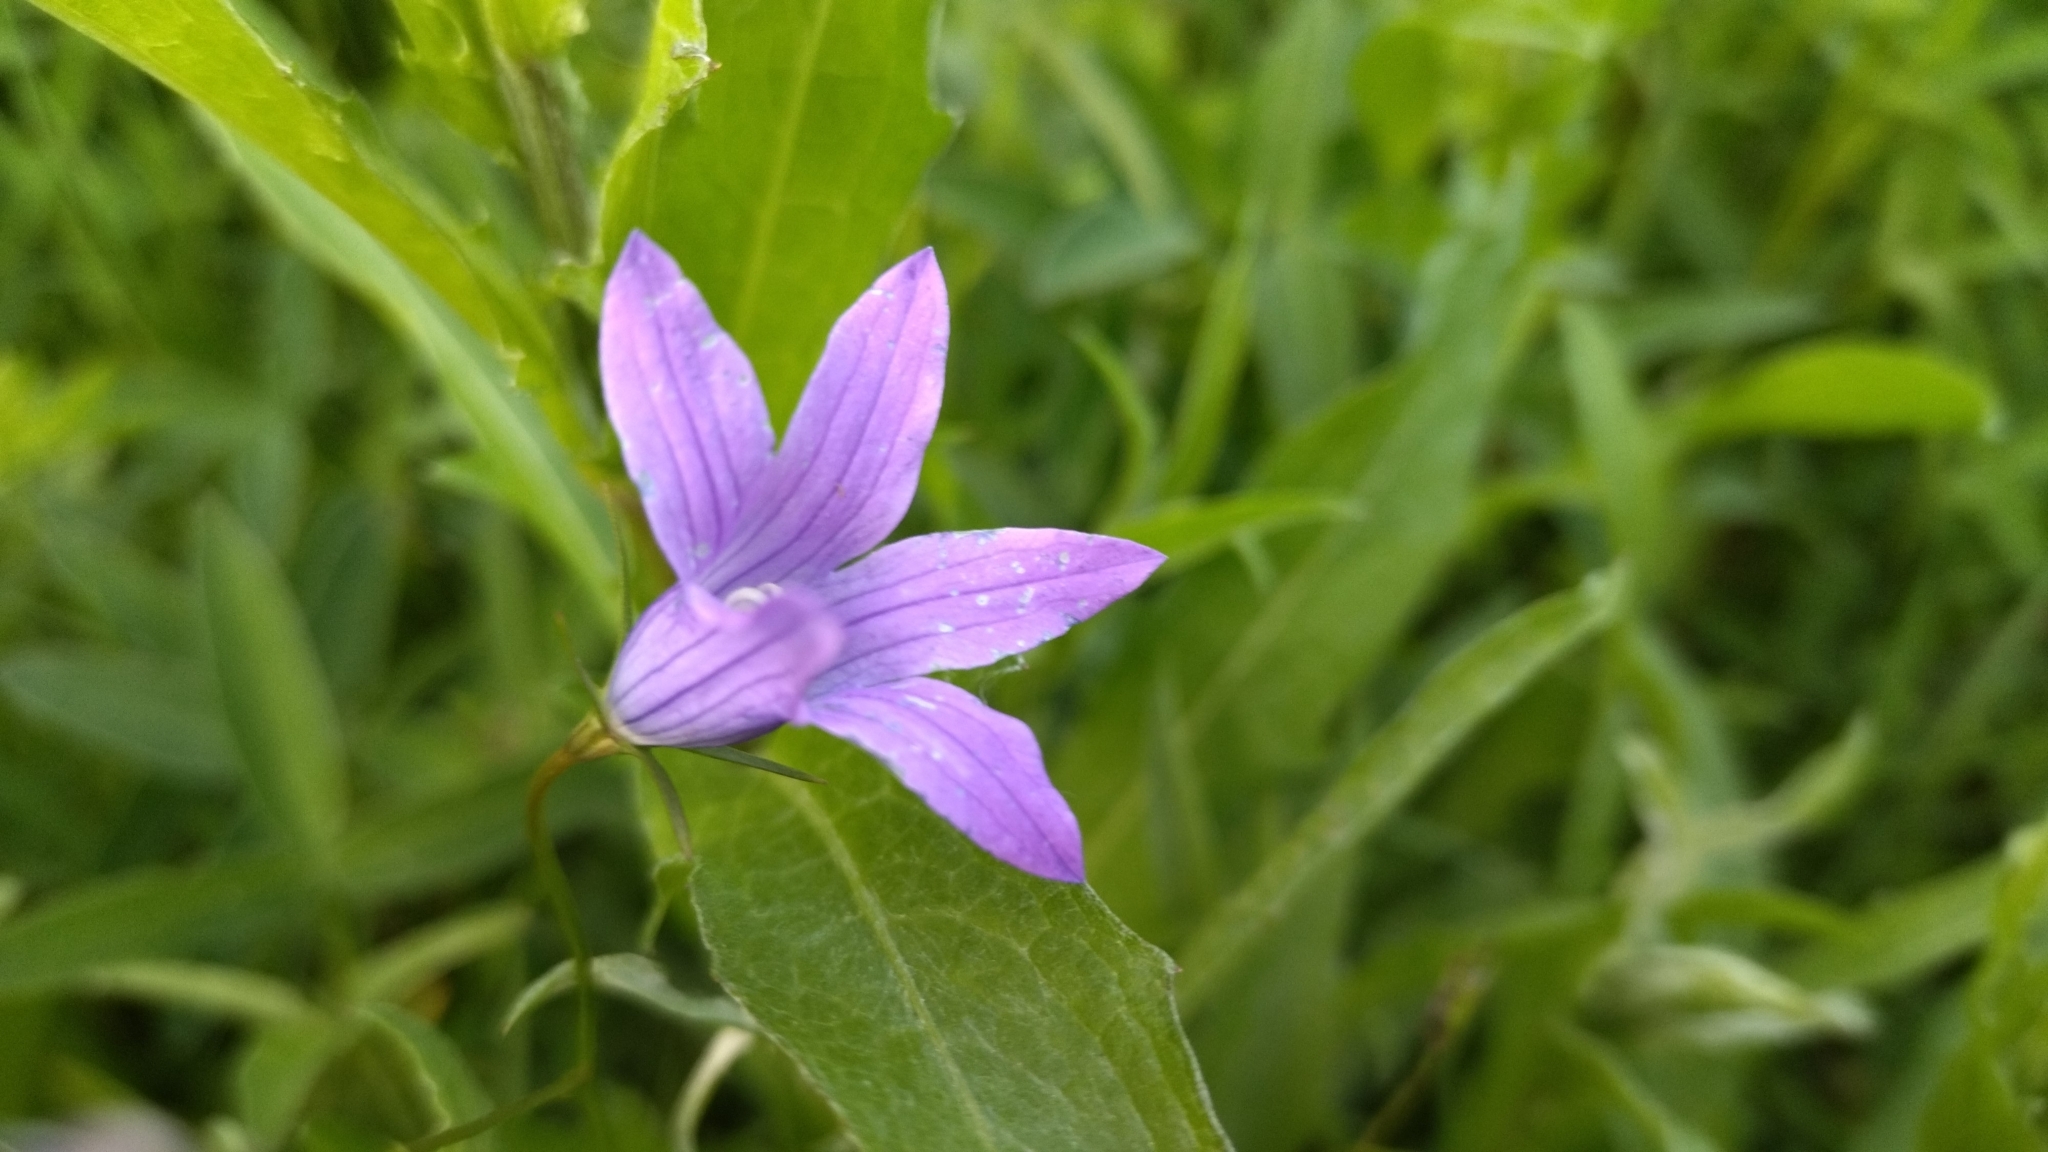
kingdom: Plantae
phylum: Tracheophyta
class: Magnoliopsida
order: Asterales
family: Campanulaceae
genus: Campanula
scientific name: Campanula patula
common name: Spreading bellflower
